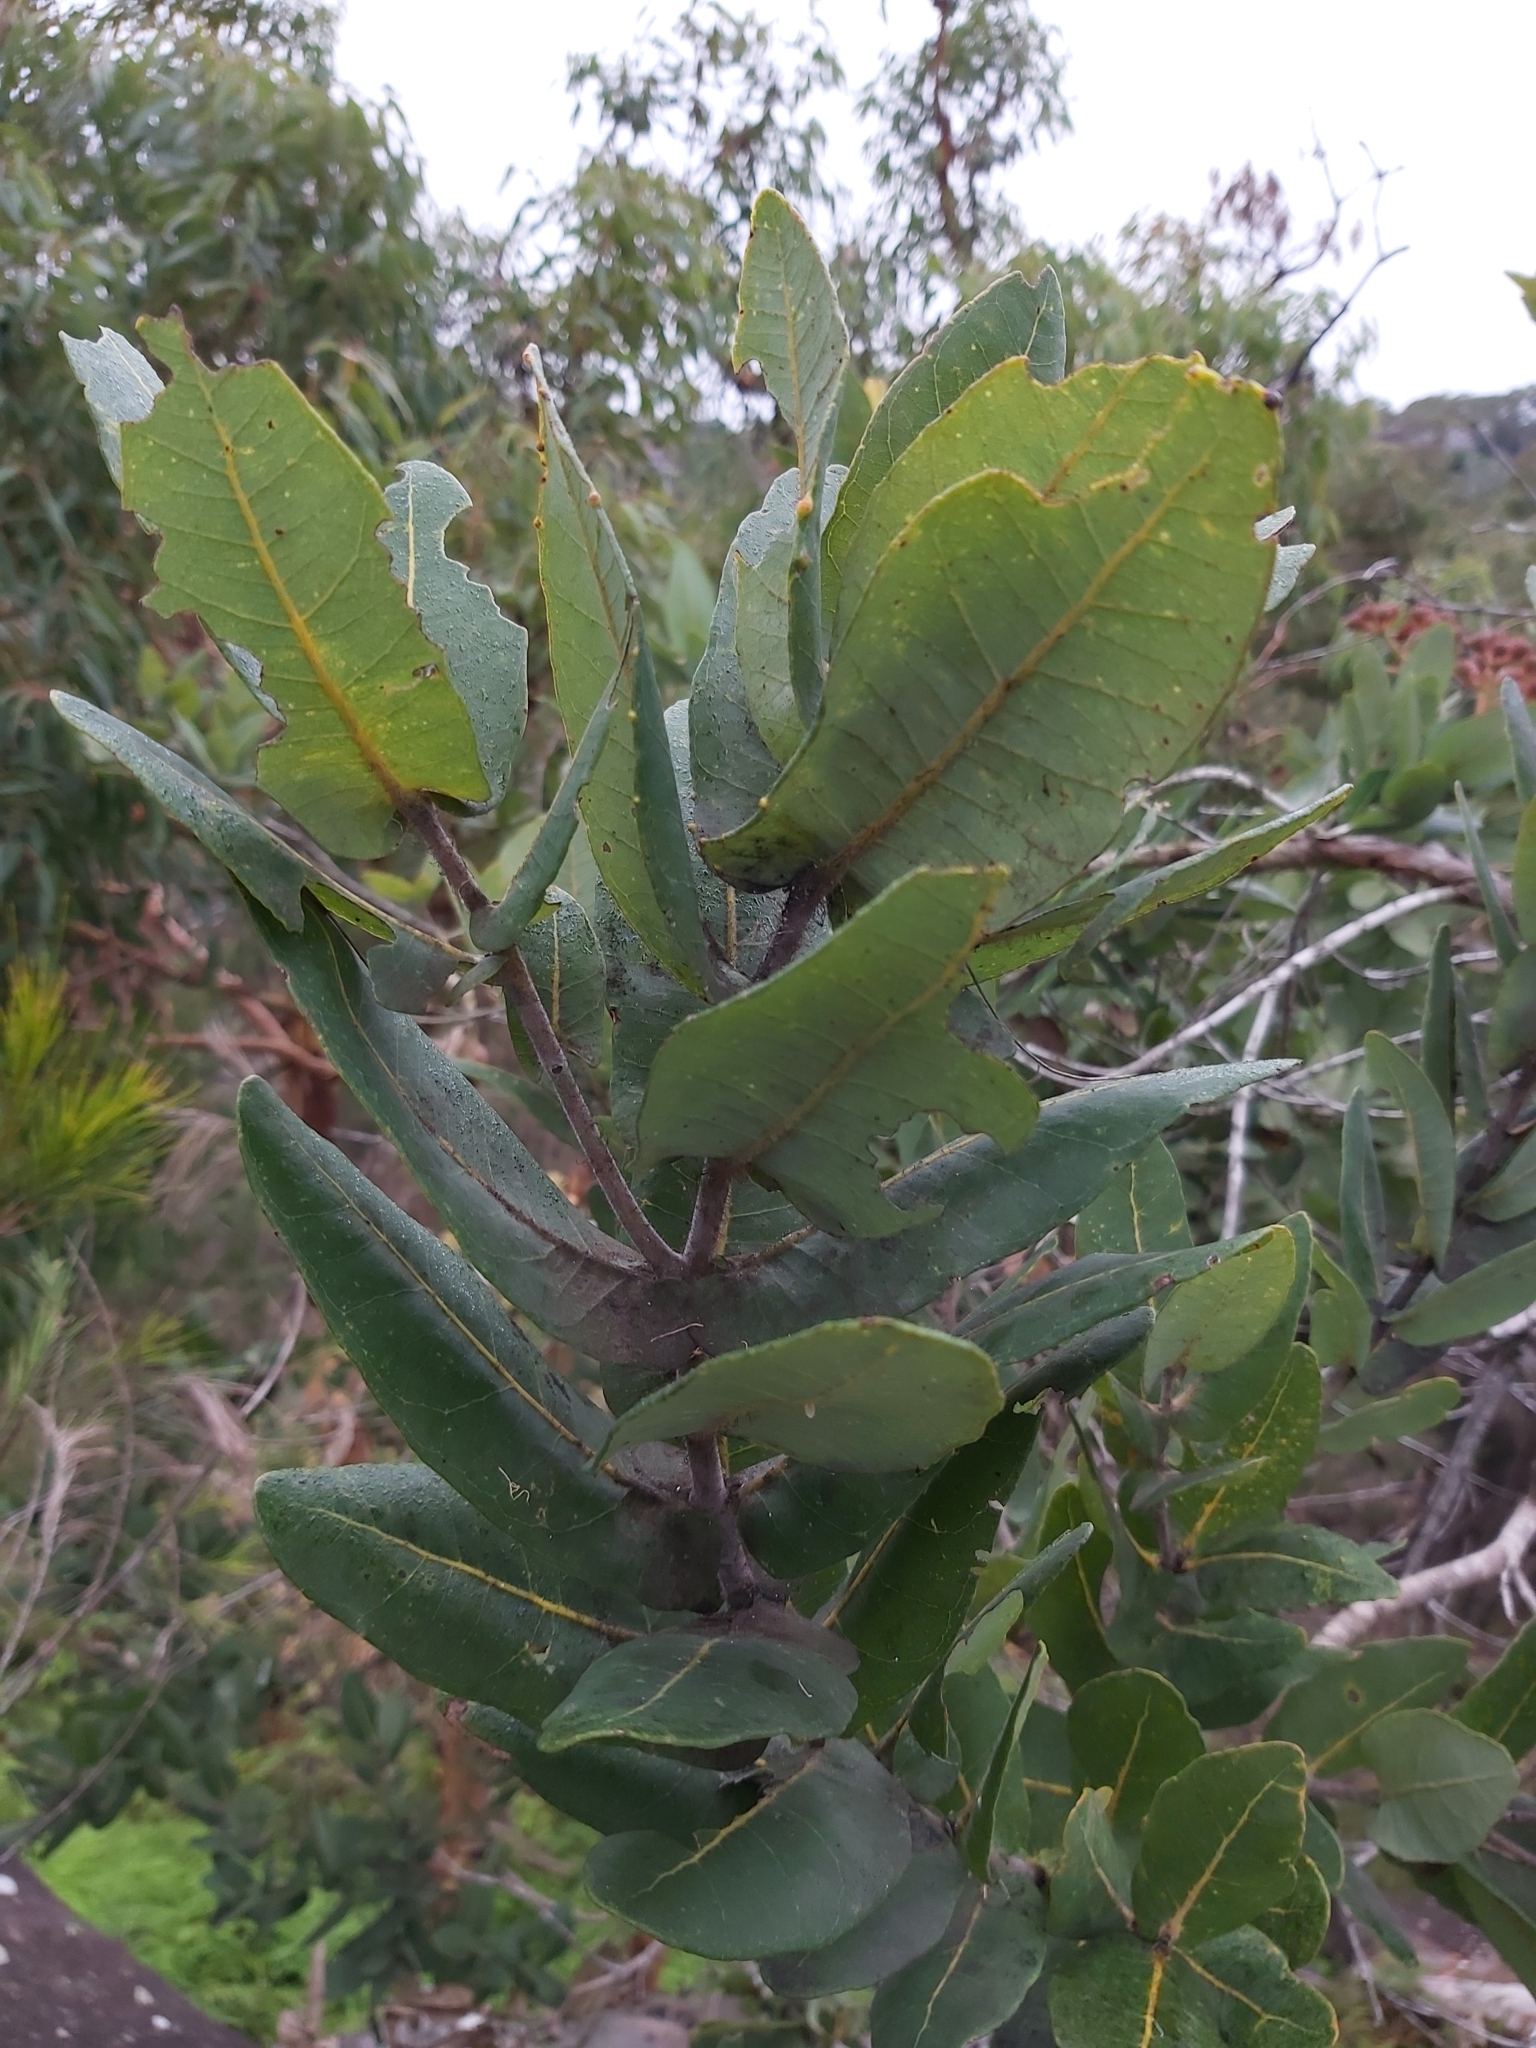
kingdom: Plantae
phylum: Tracheophyta
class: Magnoliopsida
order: Myrtales
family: Myrtaceae
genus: Angophora
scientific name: Angophora hispida
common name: Dwarf-apple
